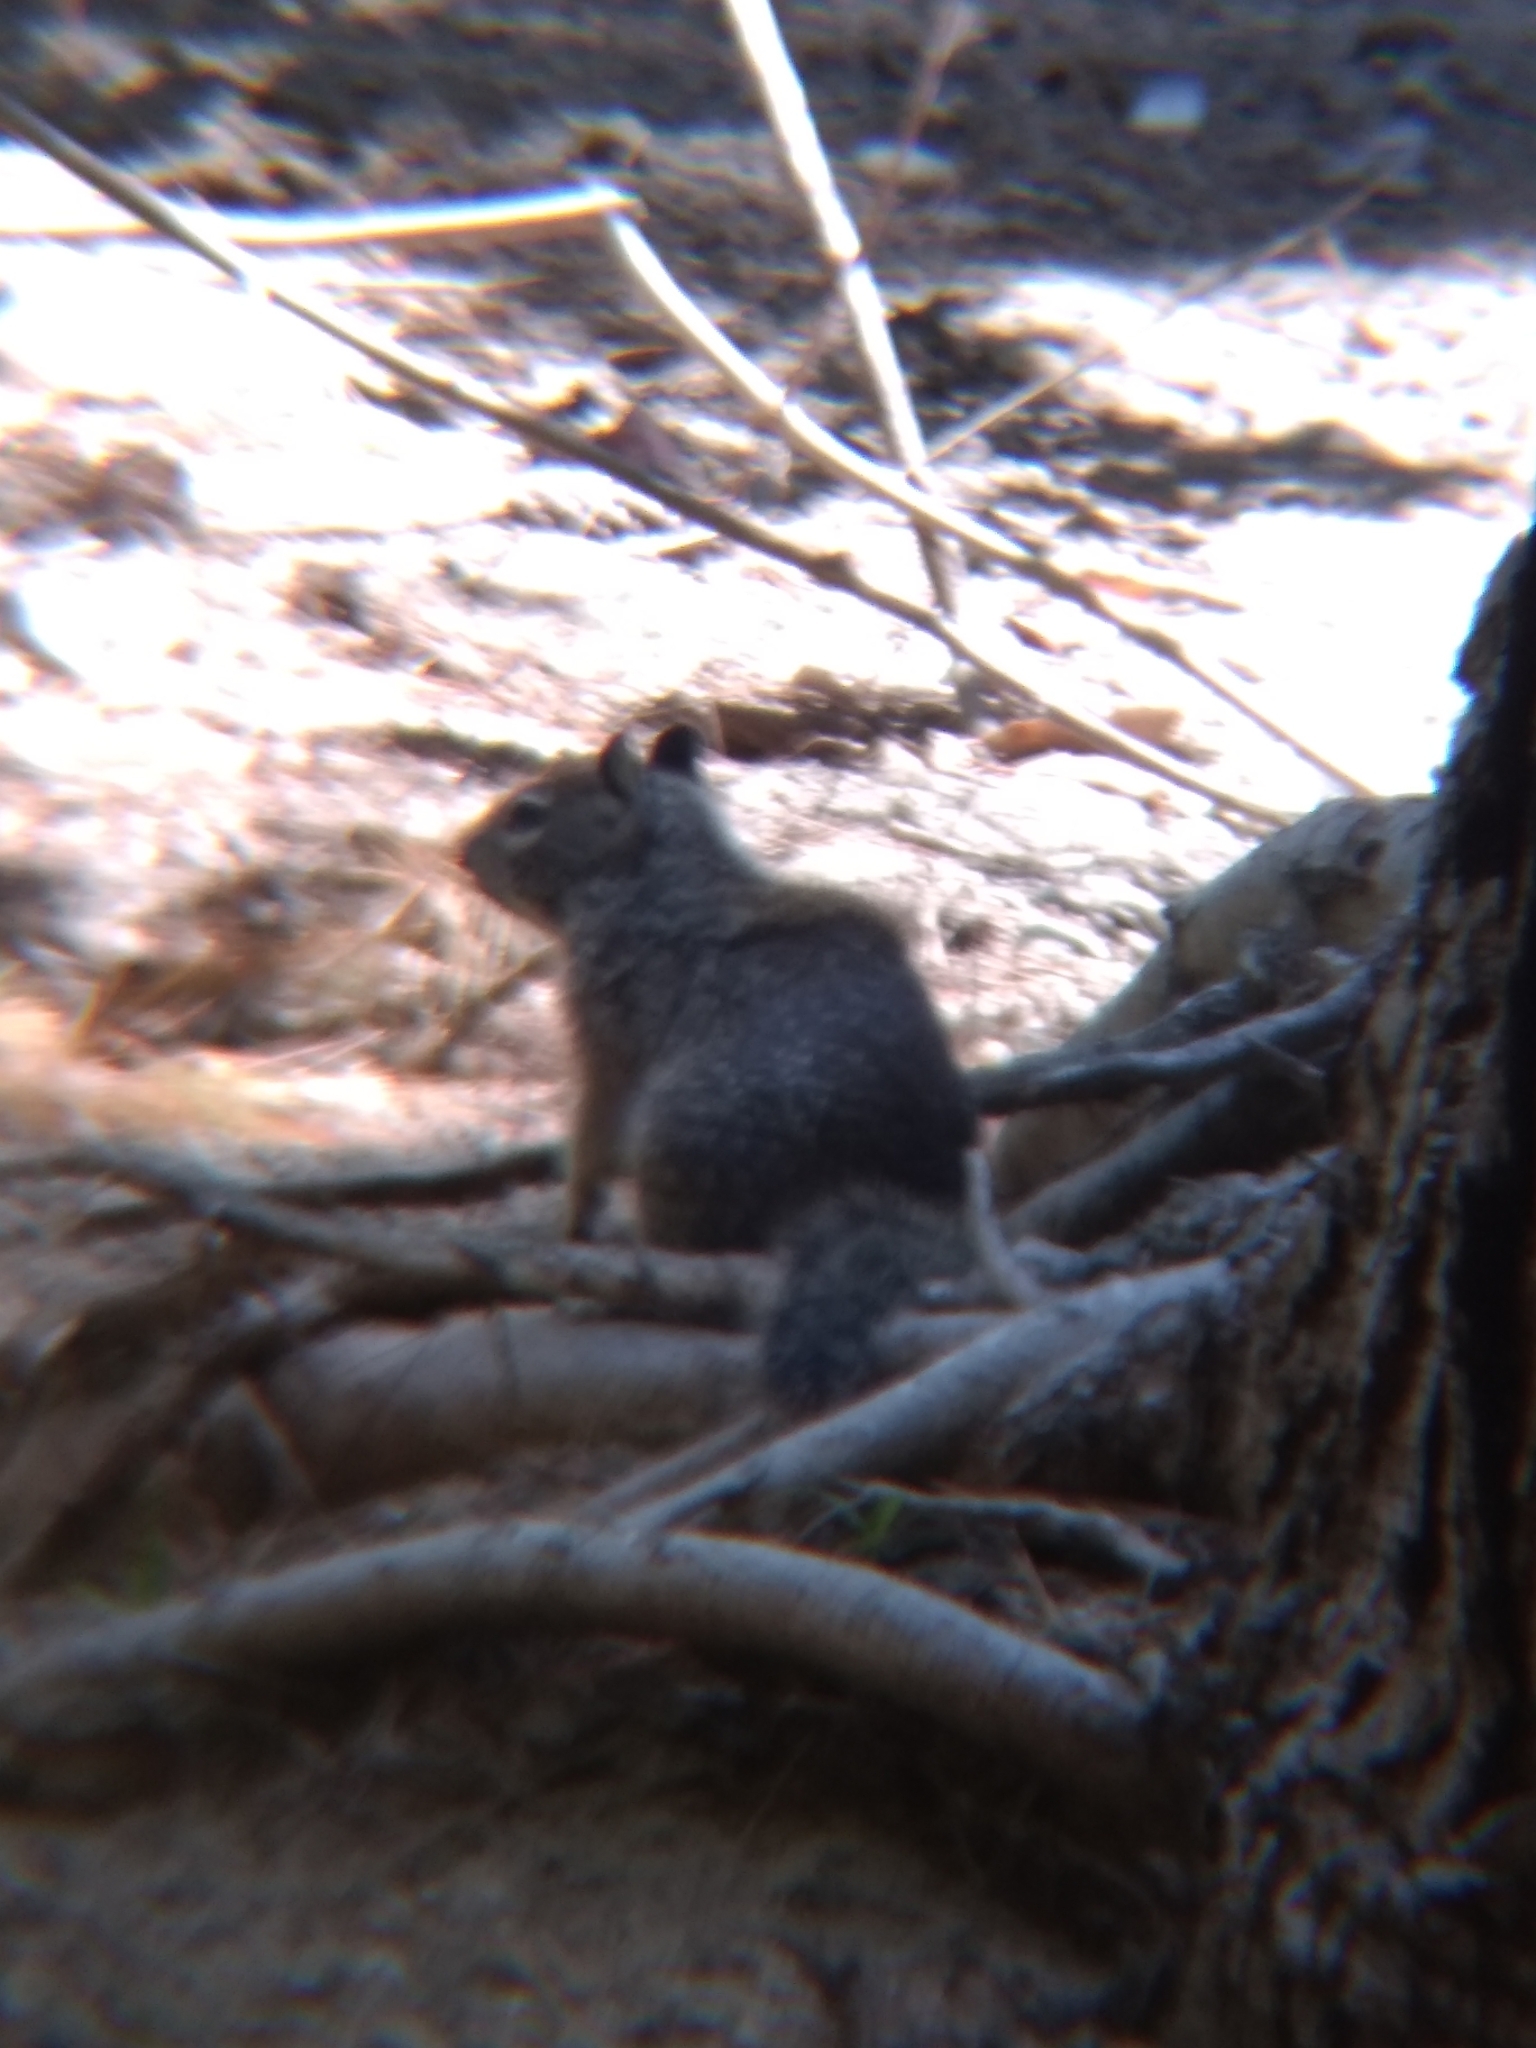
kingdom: Animalia
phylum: Chordata
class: Mammalia
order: Rodentia
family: Sciuridae
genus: Otospermophilus
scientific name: Otospermophilus beecheyi
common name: California ground squirrel
